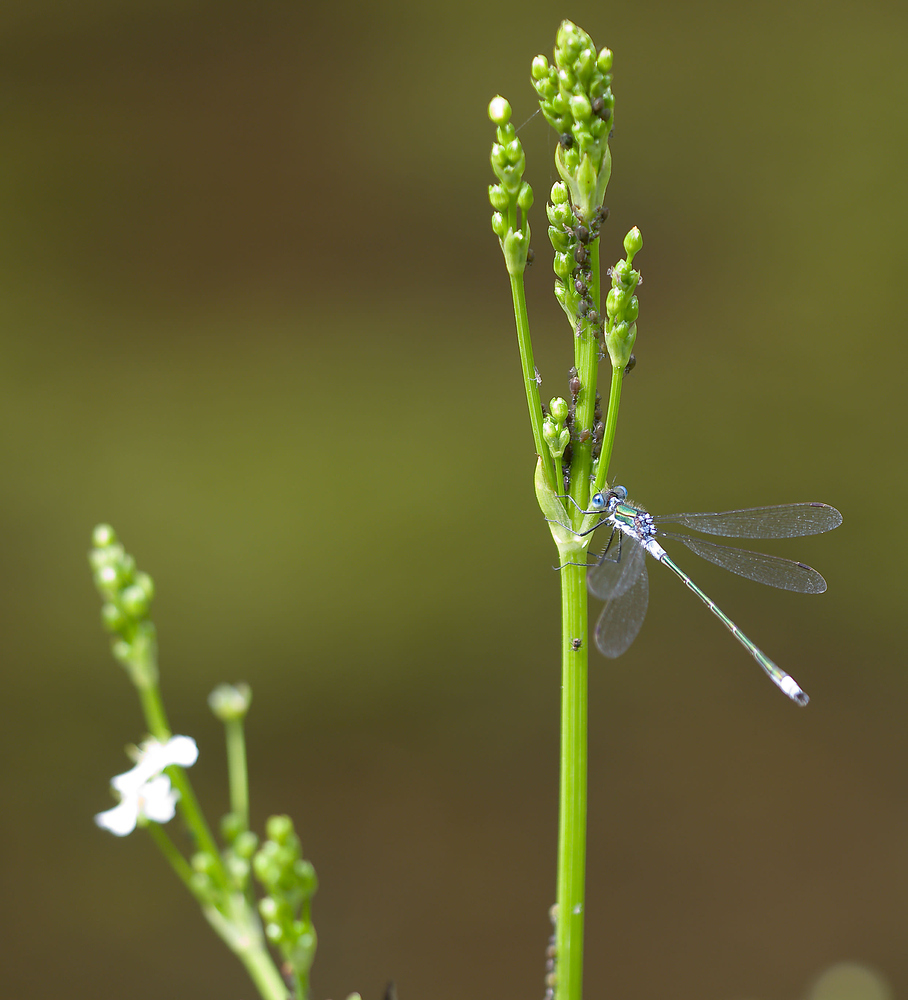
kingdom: Animalia
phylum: Arthropoda
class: Insecta
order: Odonata
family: Lestidae
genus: Lestes
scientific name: Lestes sponsa
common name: Common spreadwing
